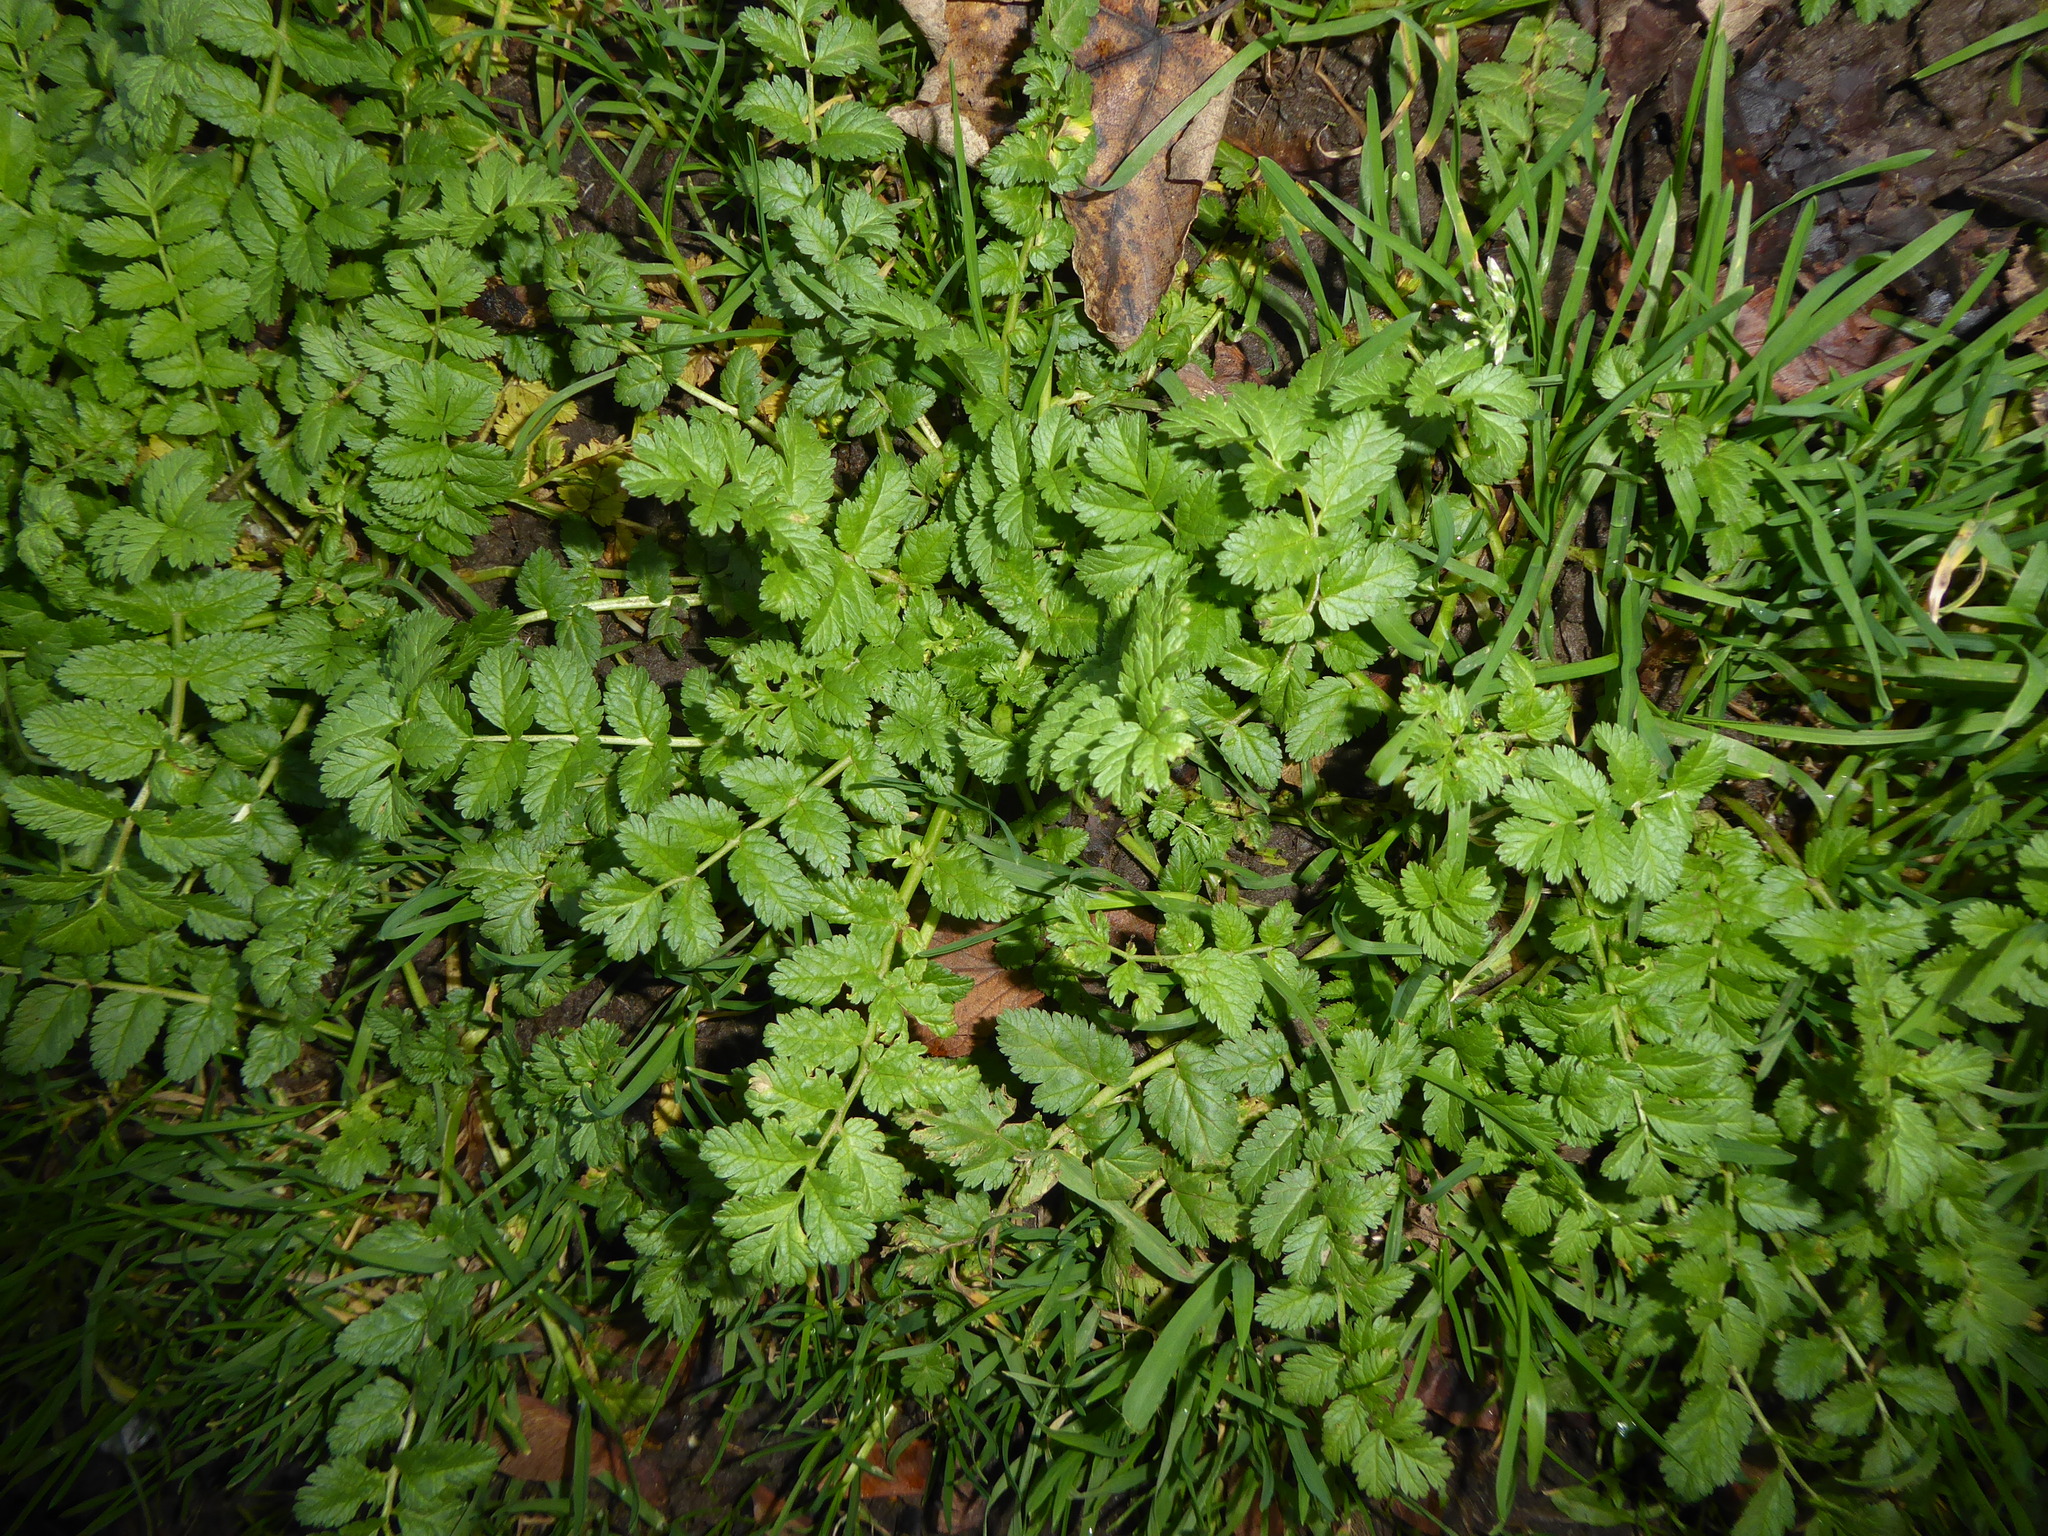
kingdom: Plantae
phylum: Tracheophyta
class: Magnoliopsida
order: Geraniales
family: Geraniaceae
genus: Erodium
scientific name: Erodium moschatum
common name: Musk stork's-bill
